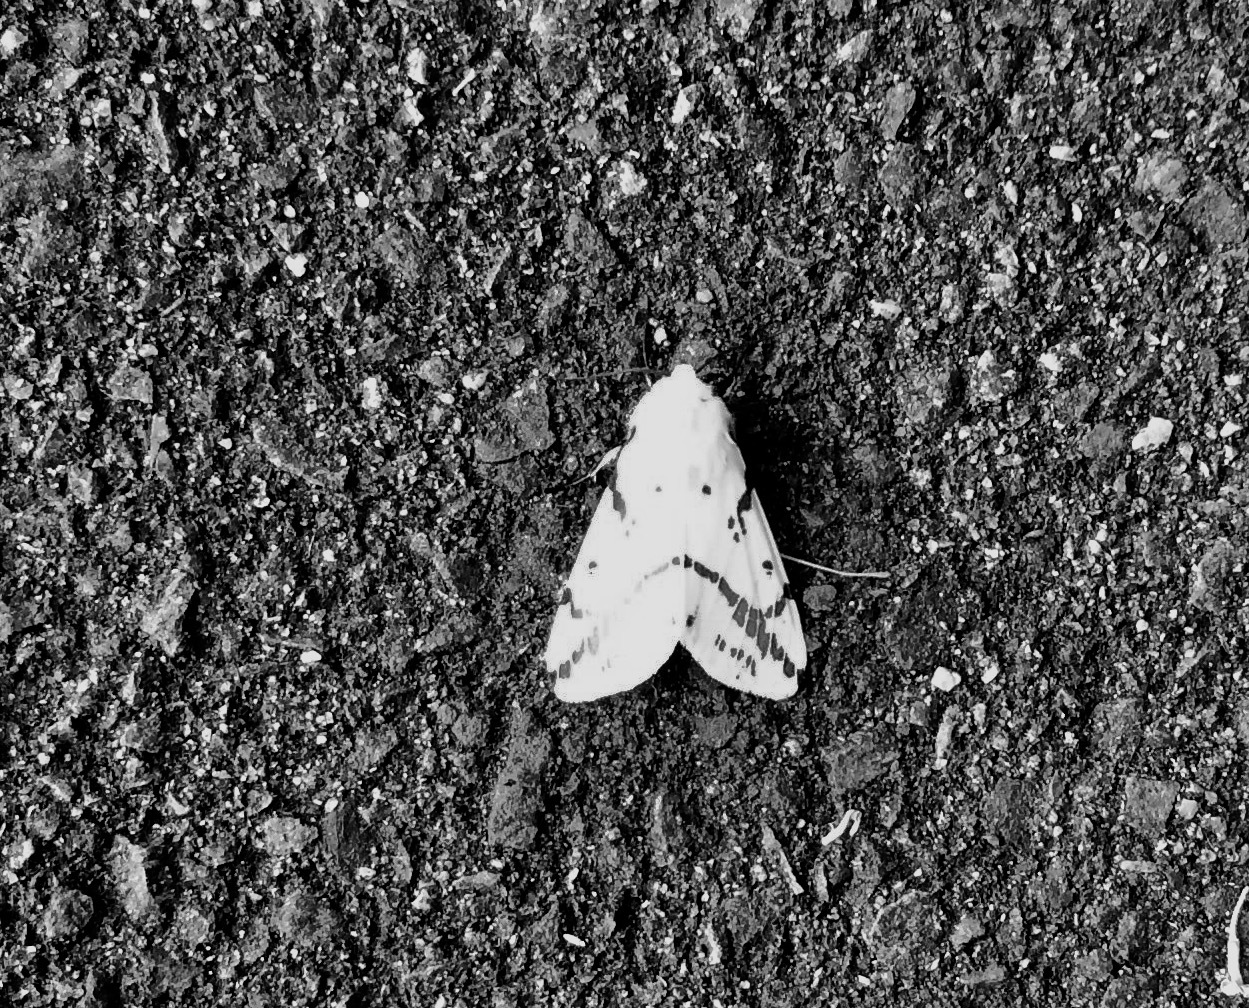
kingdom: Animalia
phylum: Arthropoda
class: Insecta
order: Lepidoptera
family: Erebidae
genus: Ardices
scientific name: Ardices canescens
